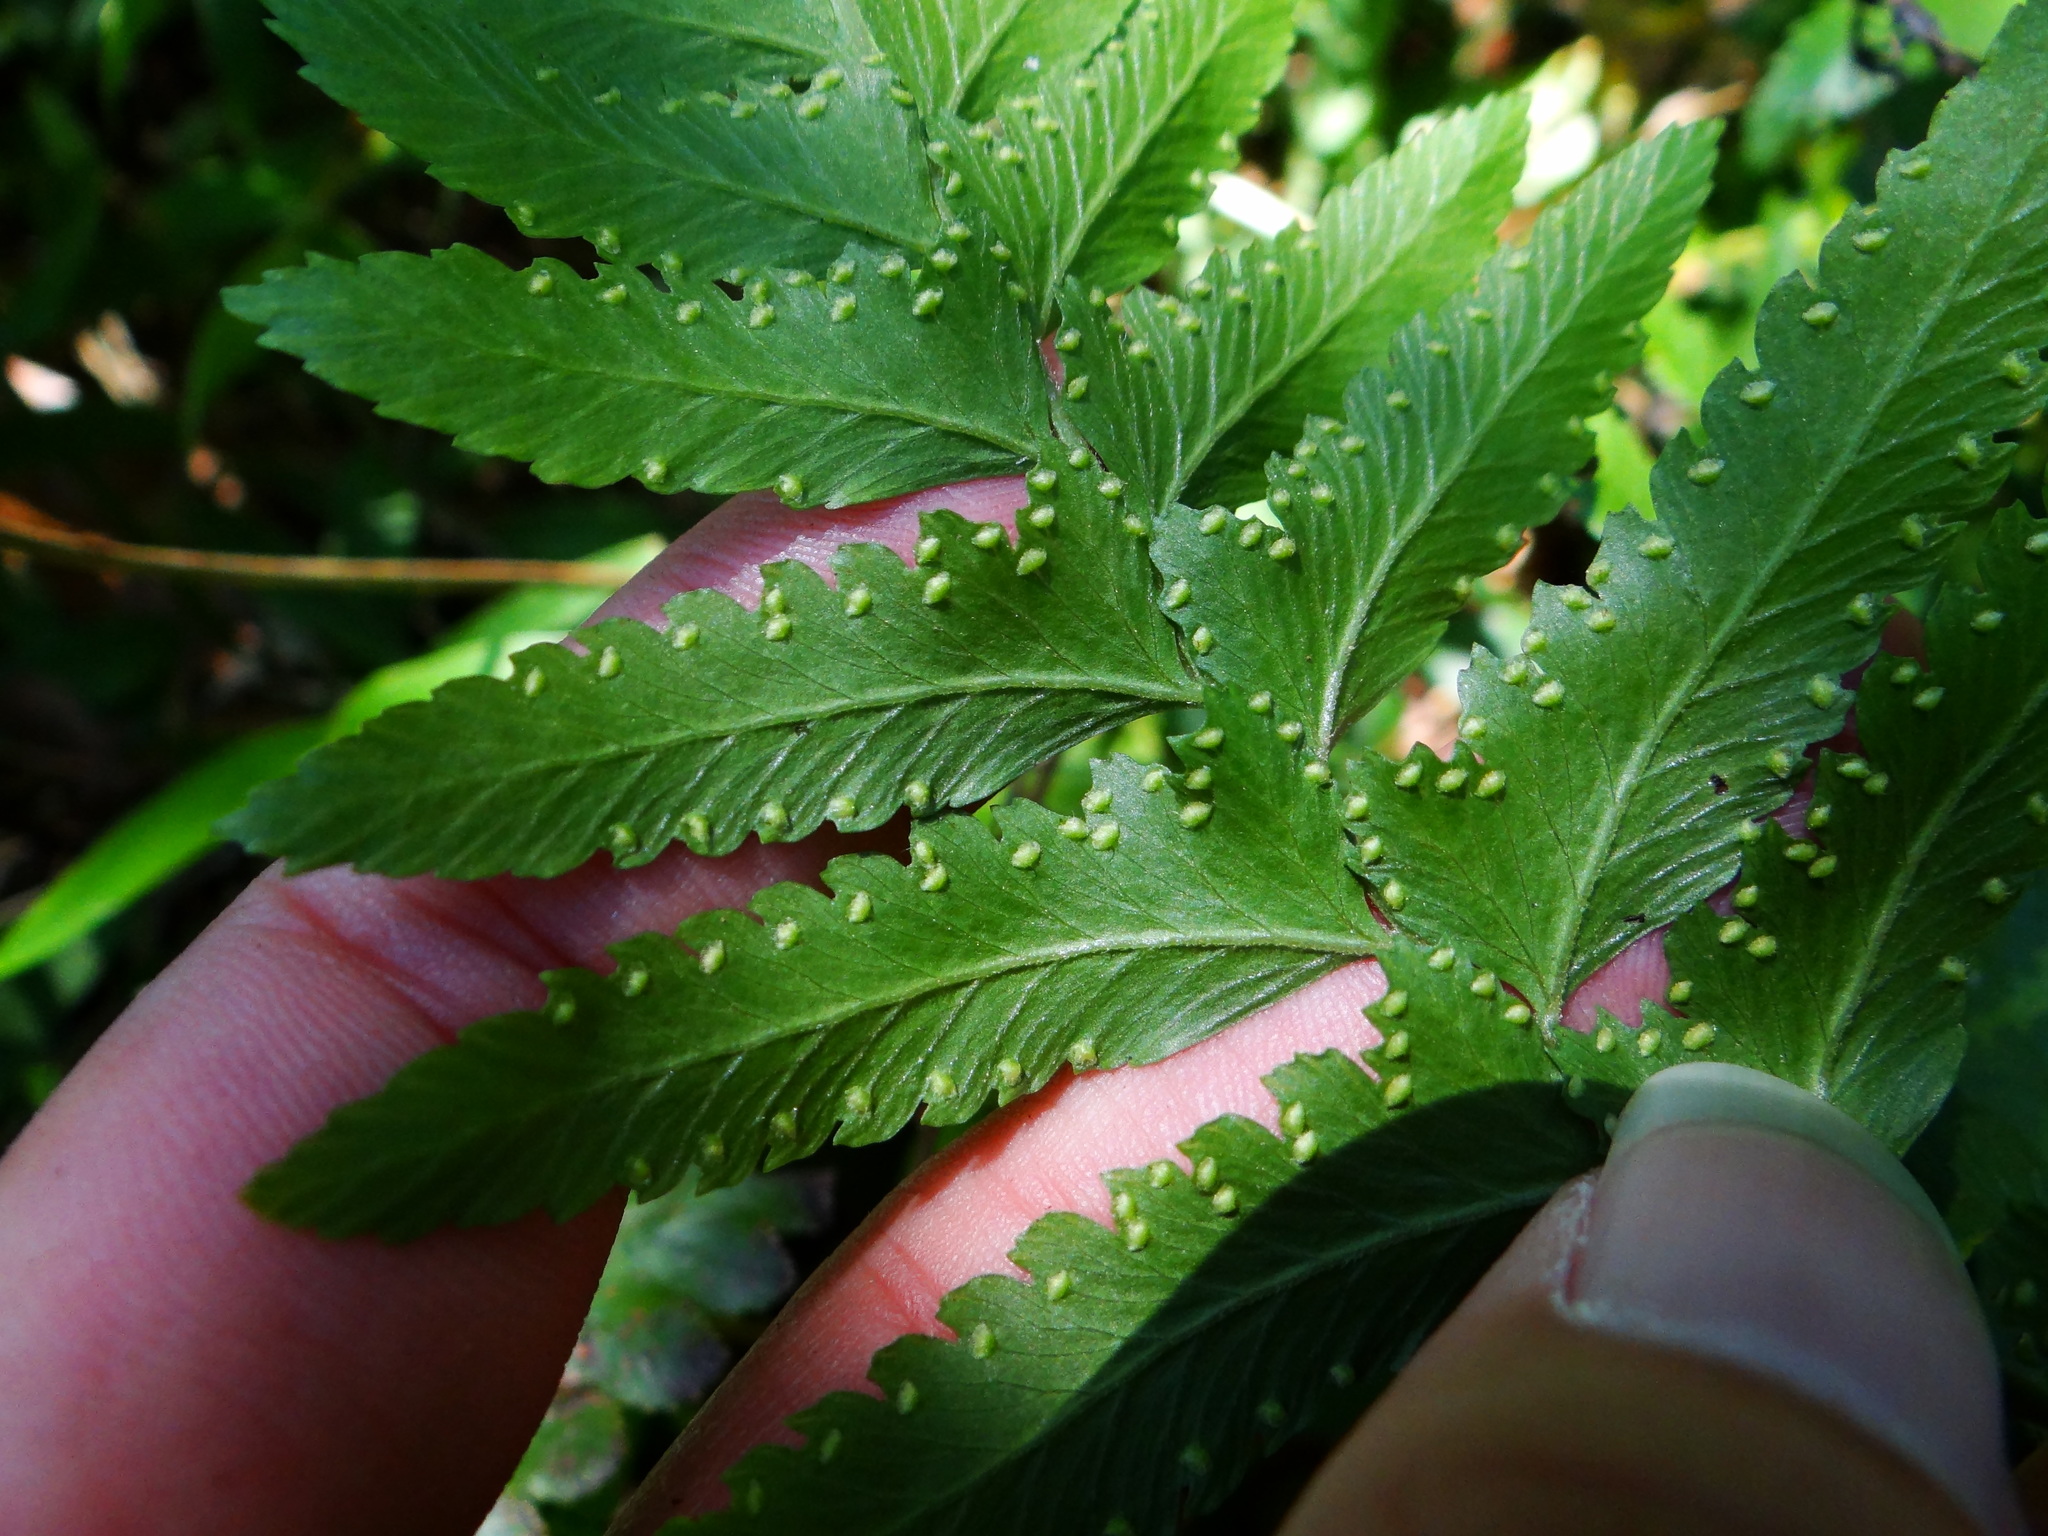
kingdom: Plantae
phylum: Tracheophyta
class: Polypodiopsida
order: Polypodiales
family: Dennstaedtiaceae
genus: Microlepia
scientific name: Microlepia bipinnata
